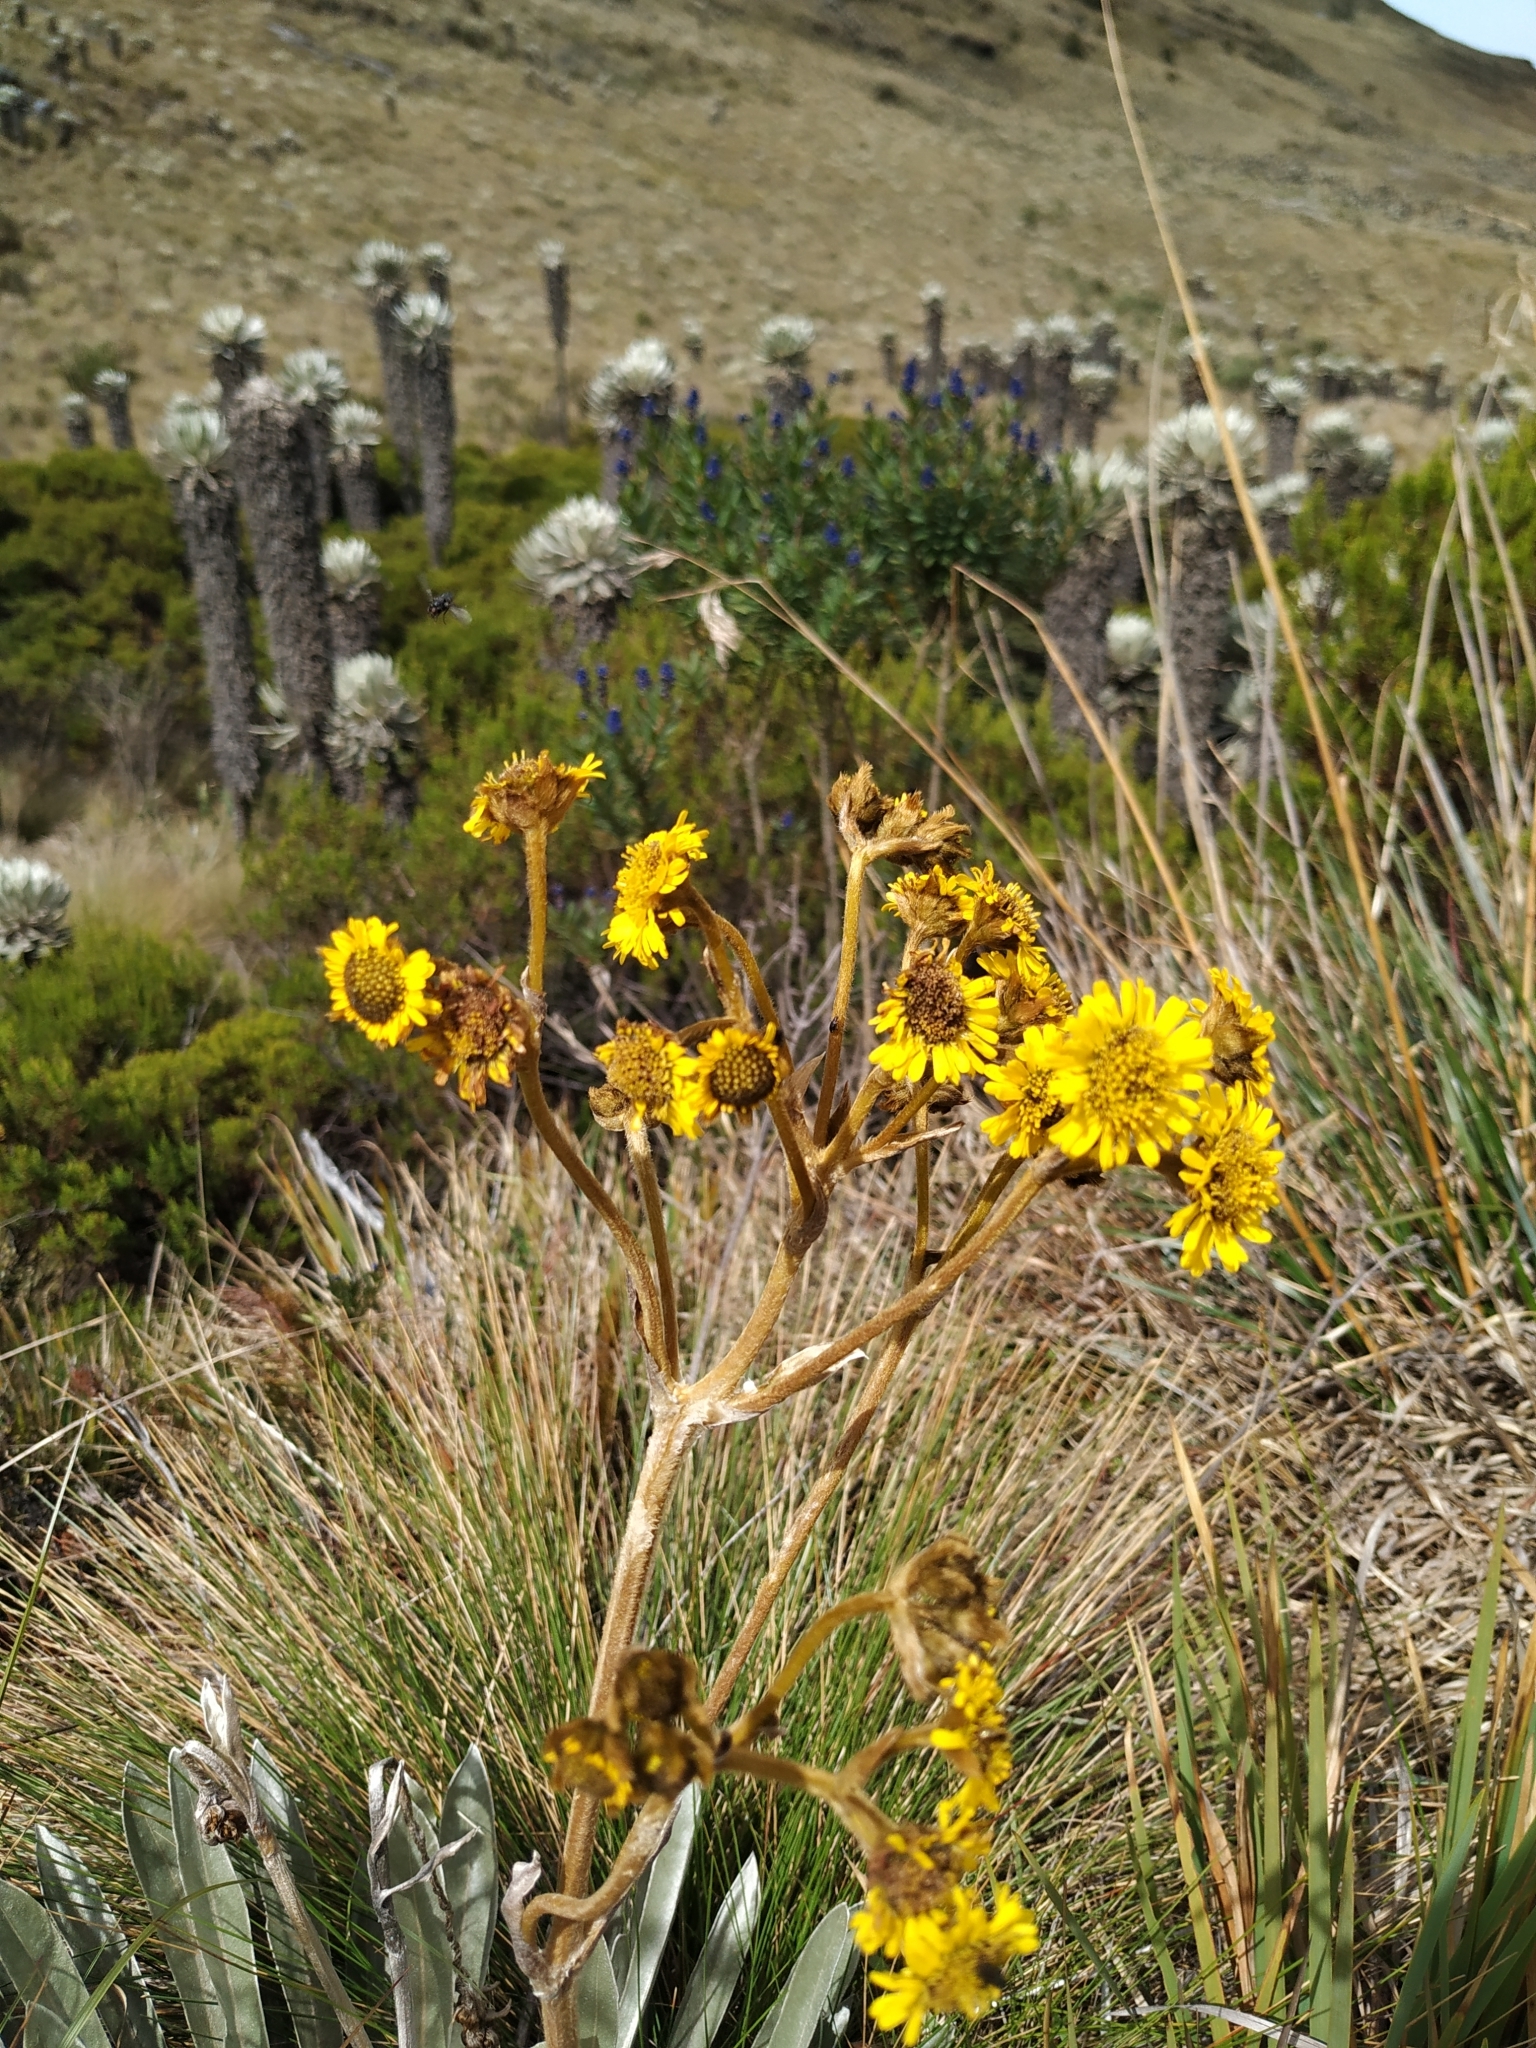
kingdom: Plantae
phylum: Tracheophyta
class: Magnoliopsida
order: Asterales
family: Asteraceae
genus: Espeletia
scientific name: Espeletia boyacensis
